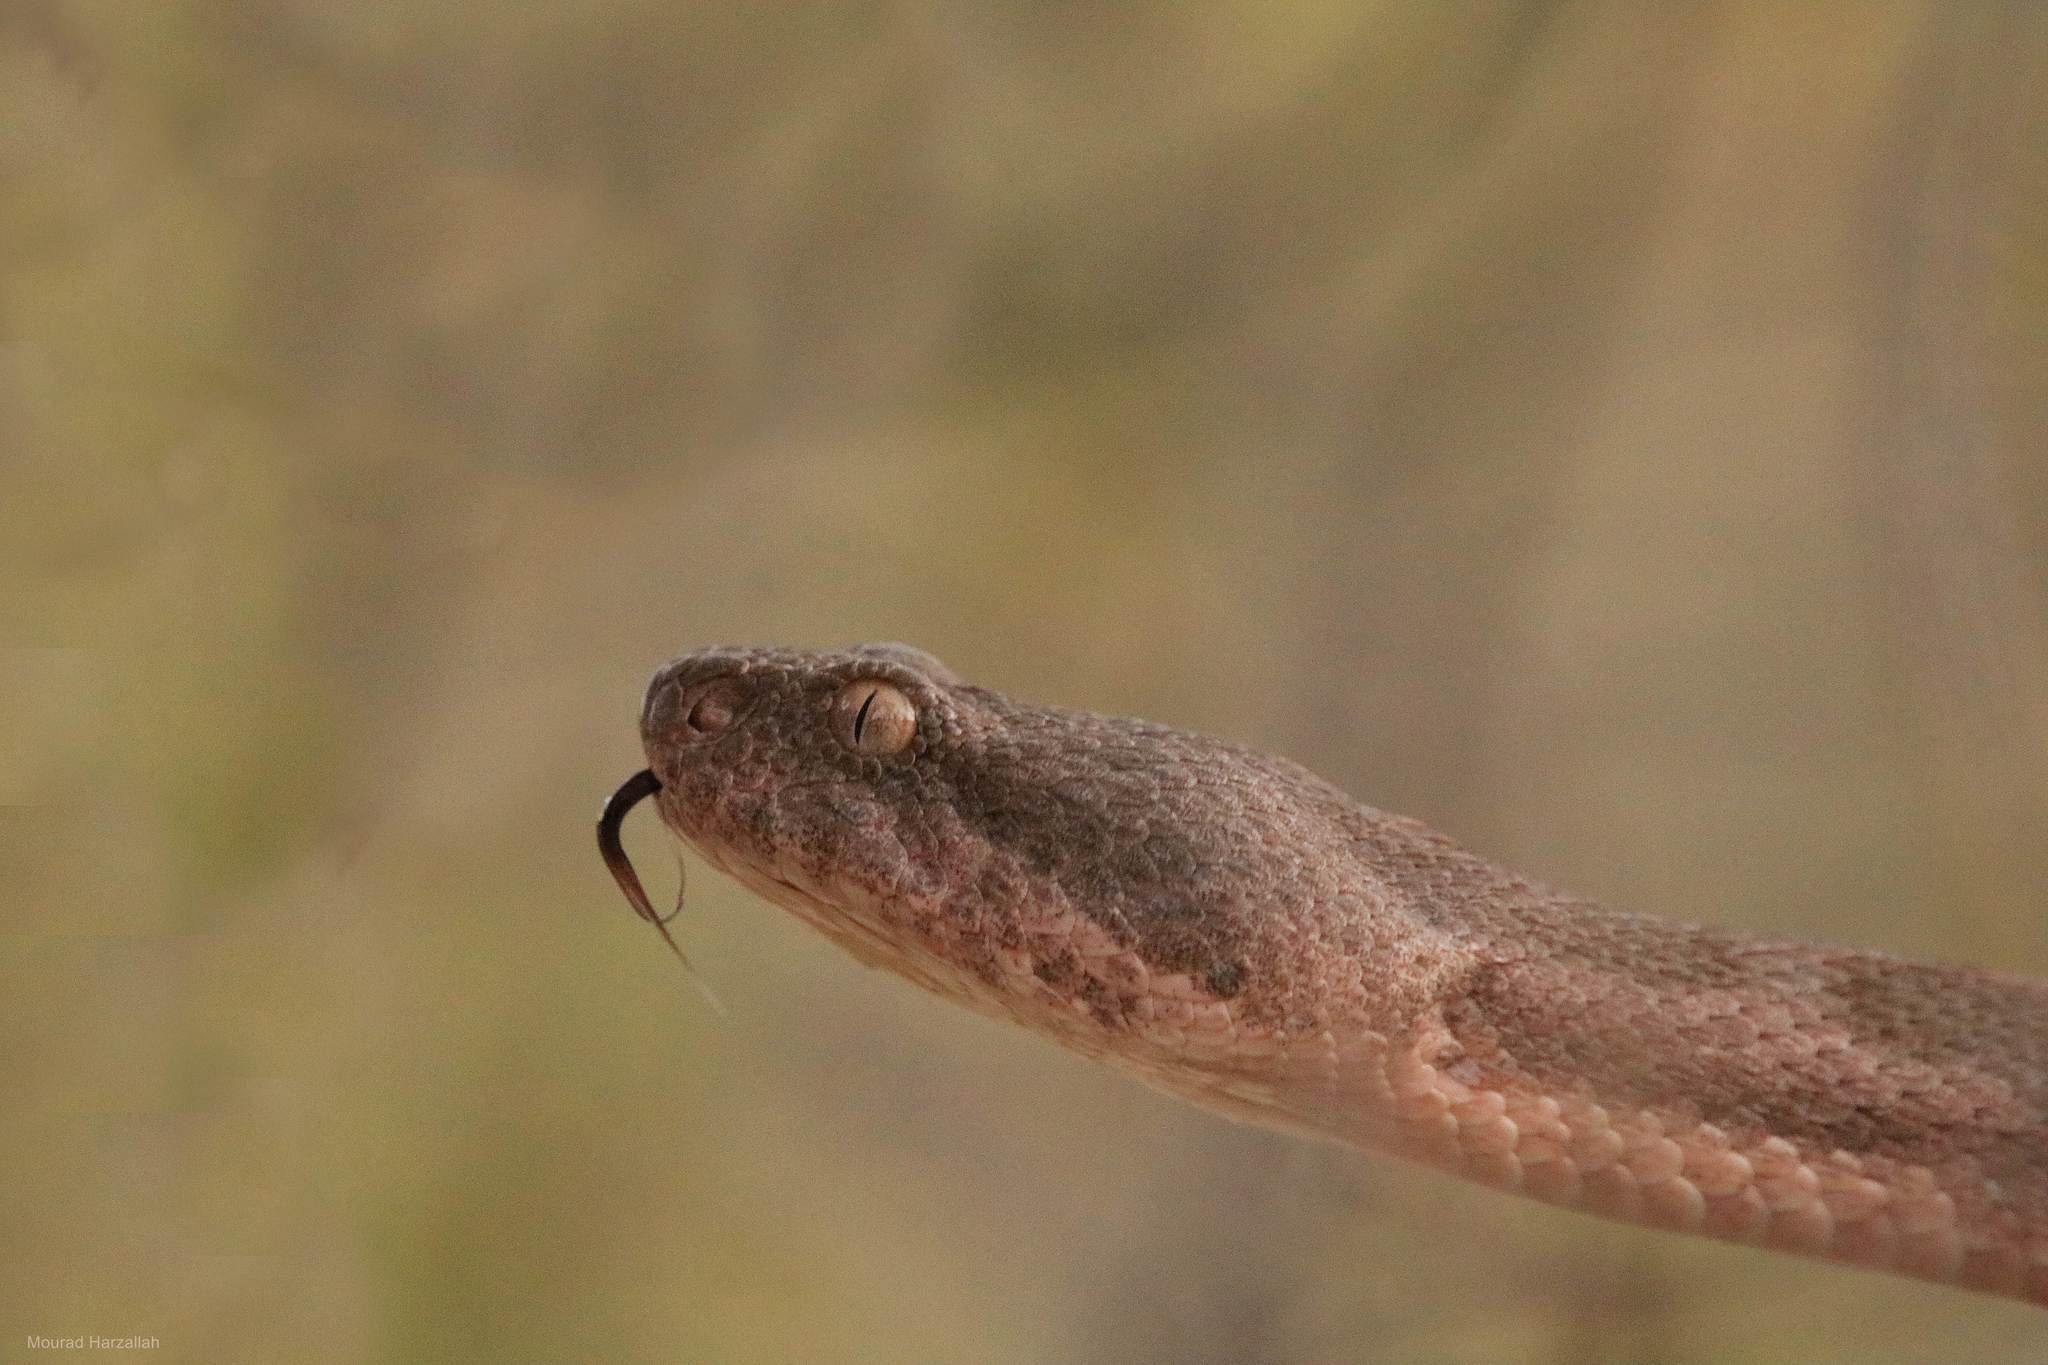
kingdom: Animalia
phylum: Chordata
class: Squamata
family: Viperidae
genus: Daboia
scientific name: Daboia mauritanica
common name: Moorish viper
